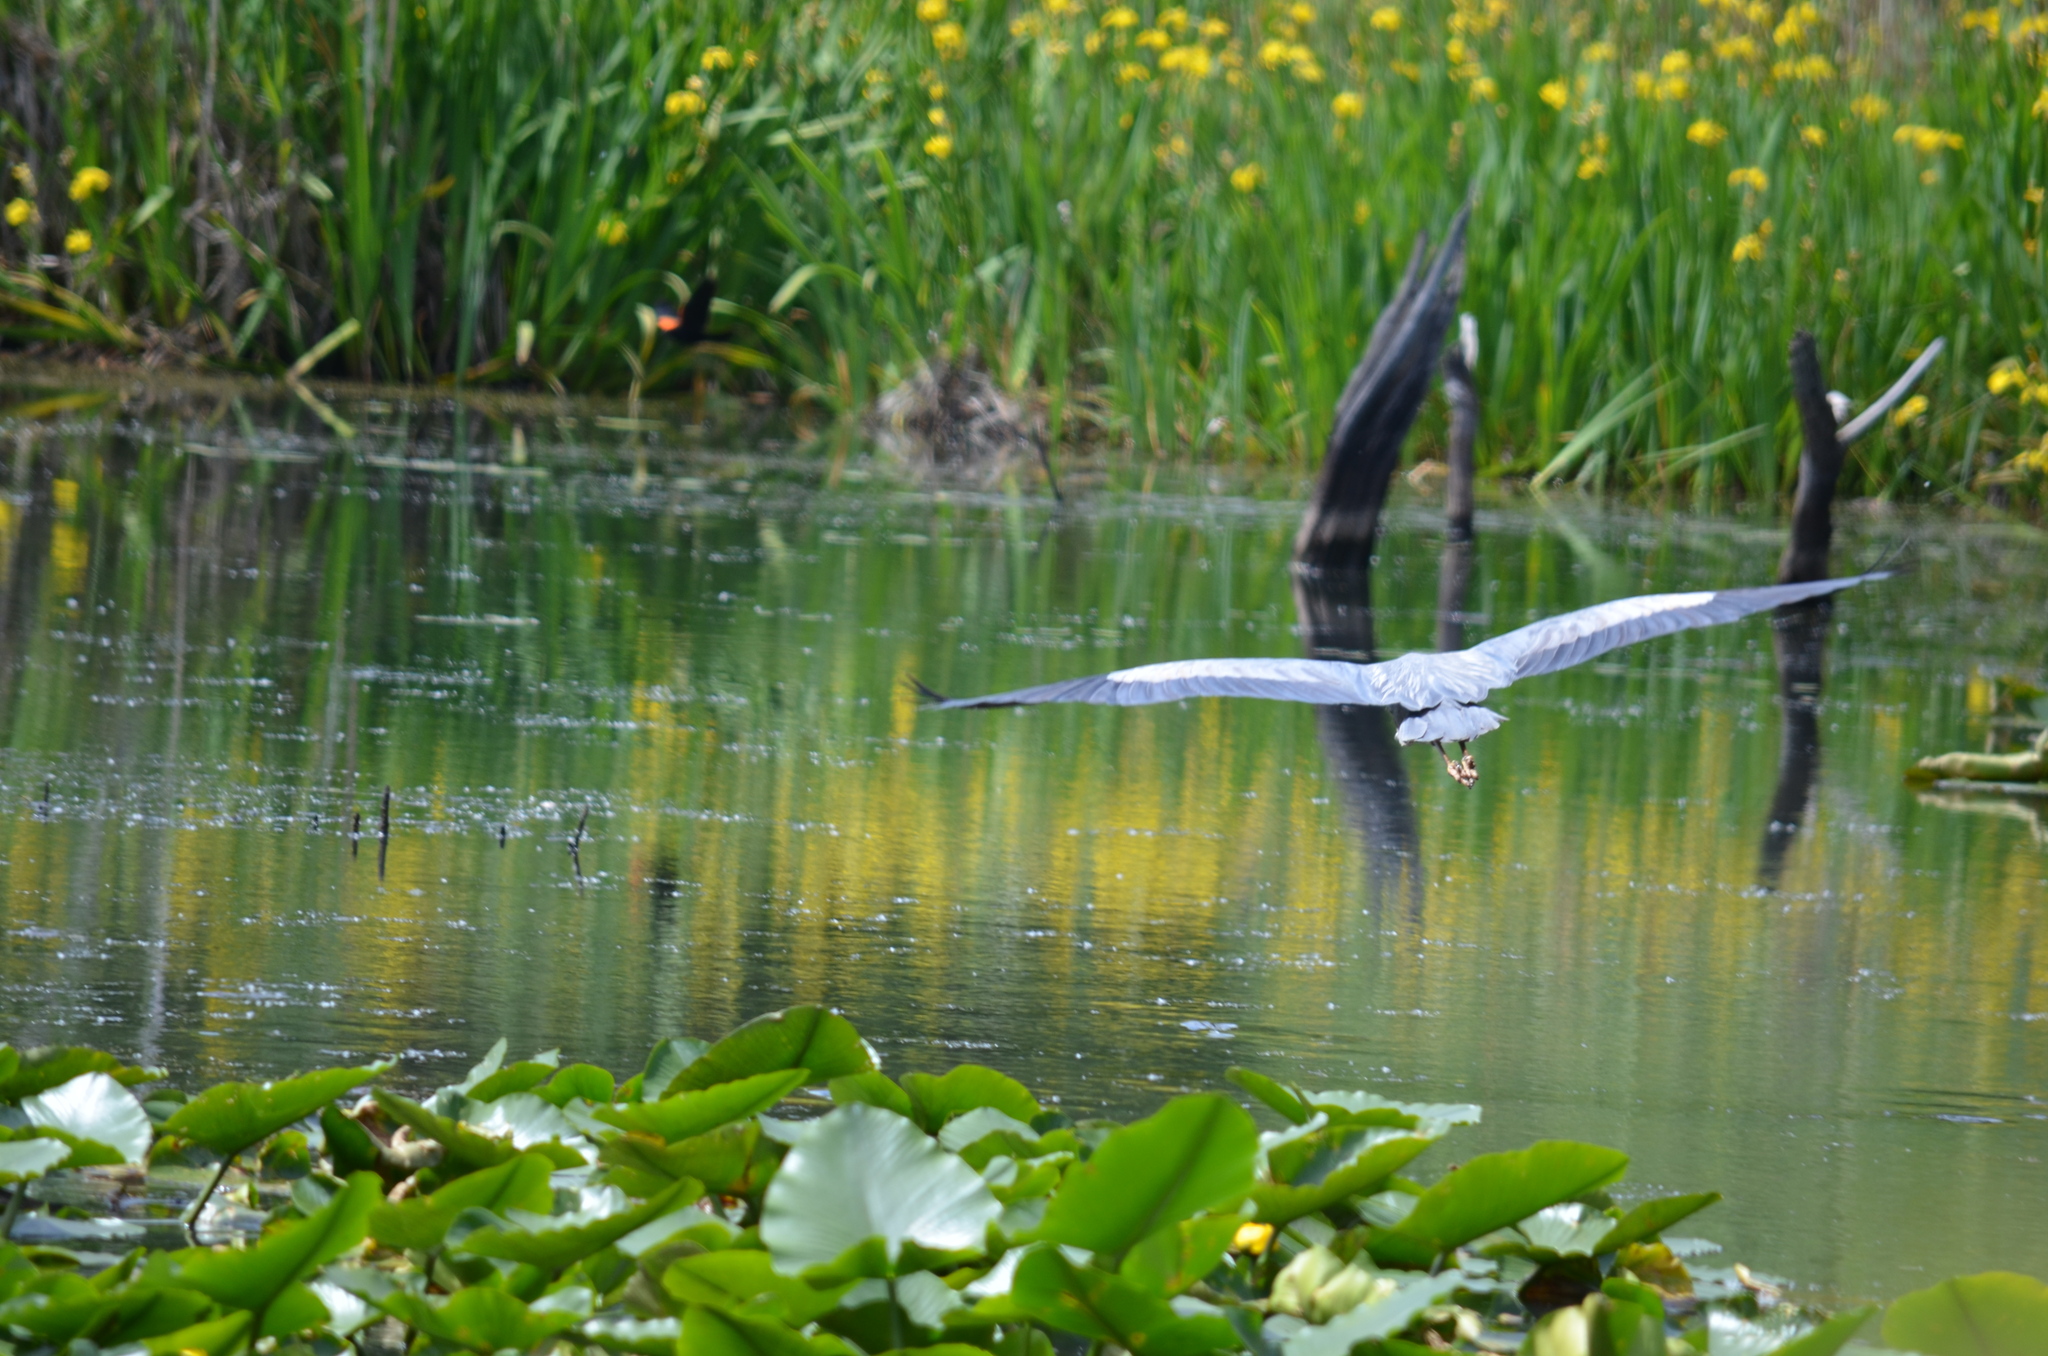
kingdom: Animalia
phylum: Chordata
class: Aves
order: Pelecaniformes
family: Ardeidae
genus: Ardea
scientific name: Ardea herodias
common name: Great blue heron
